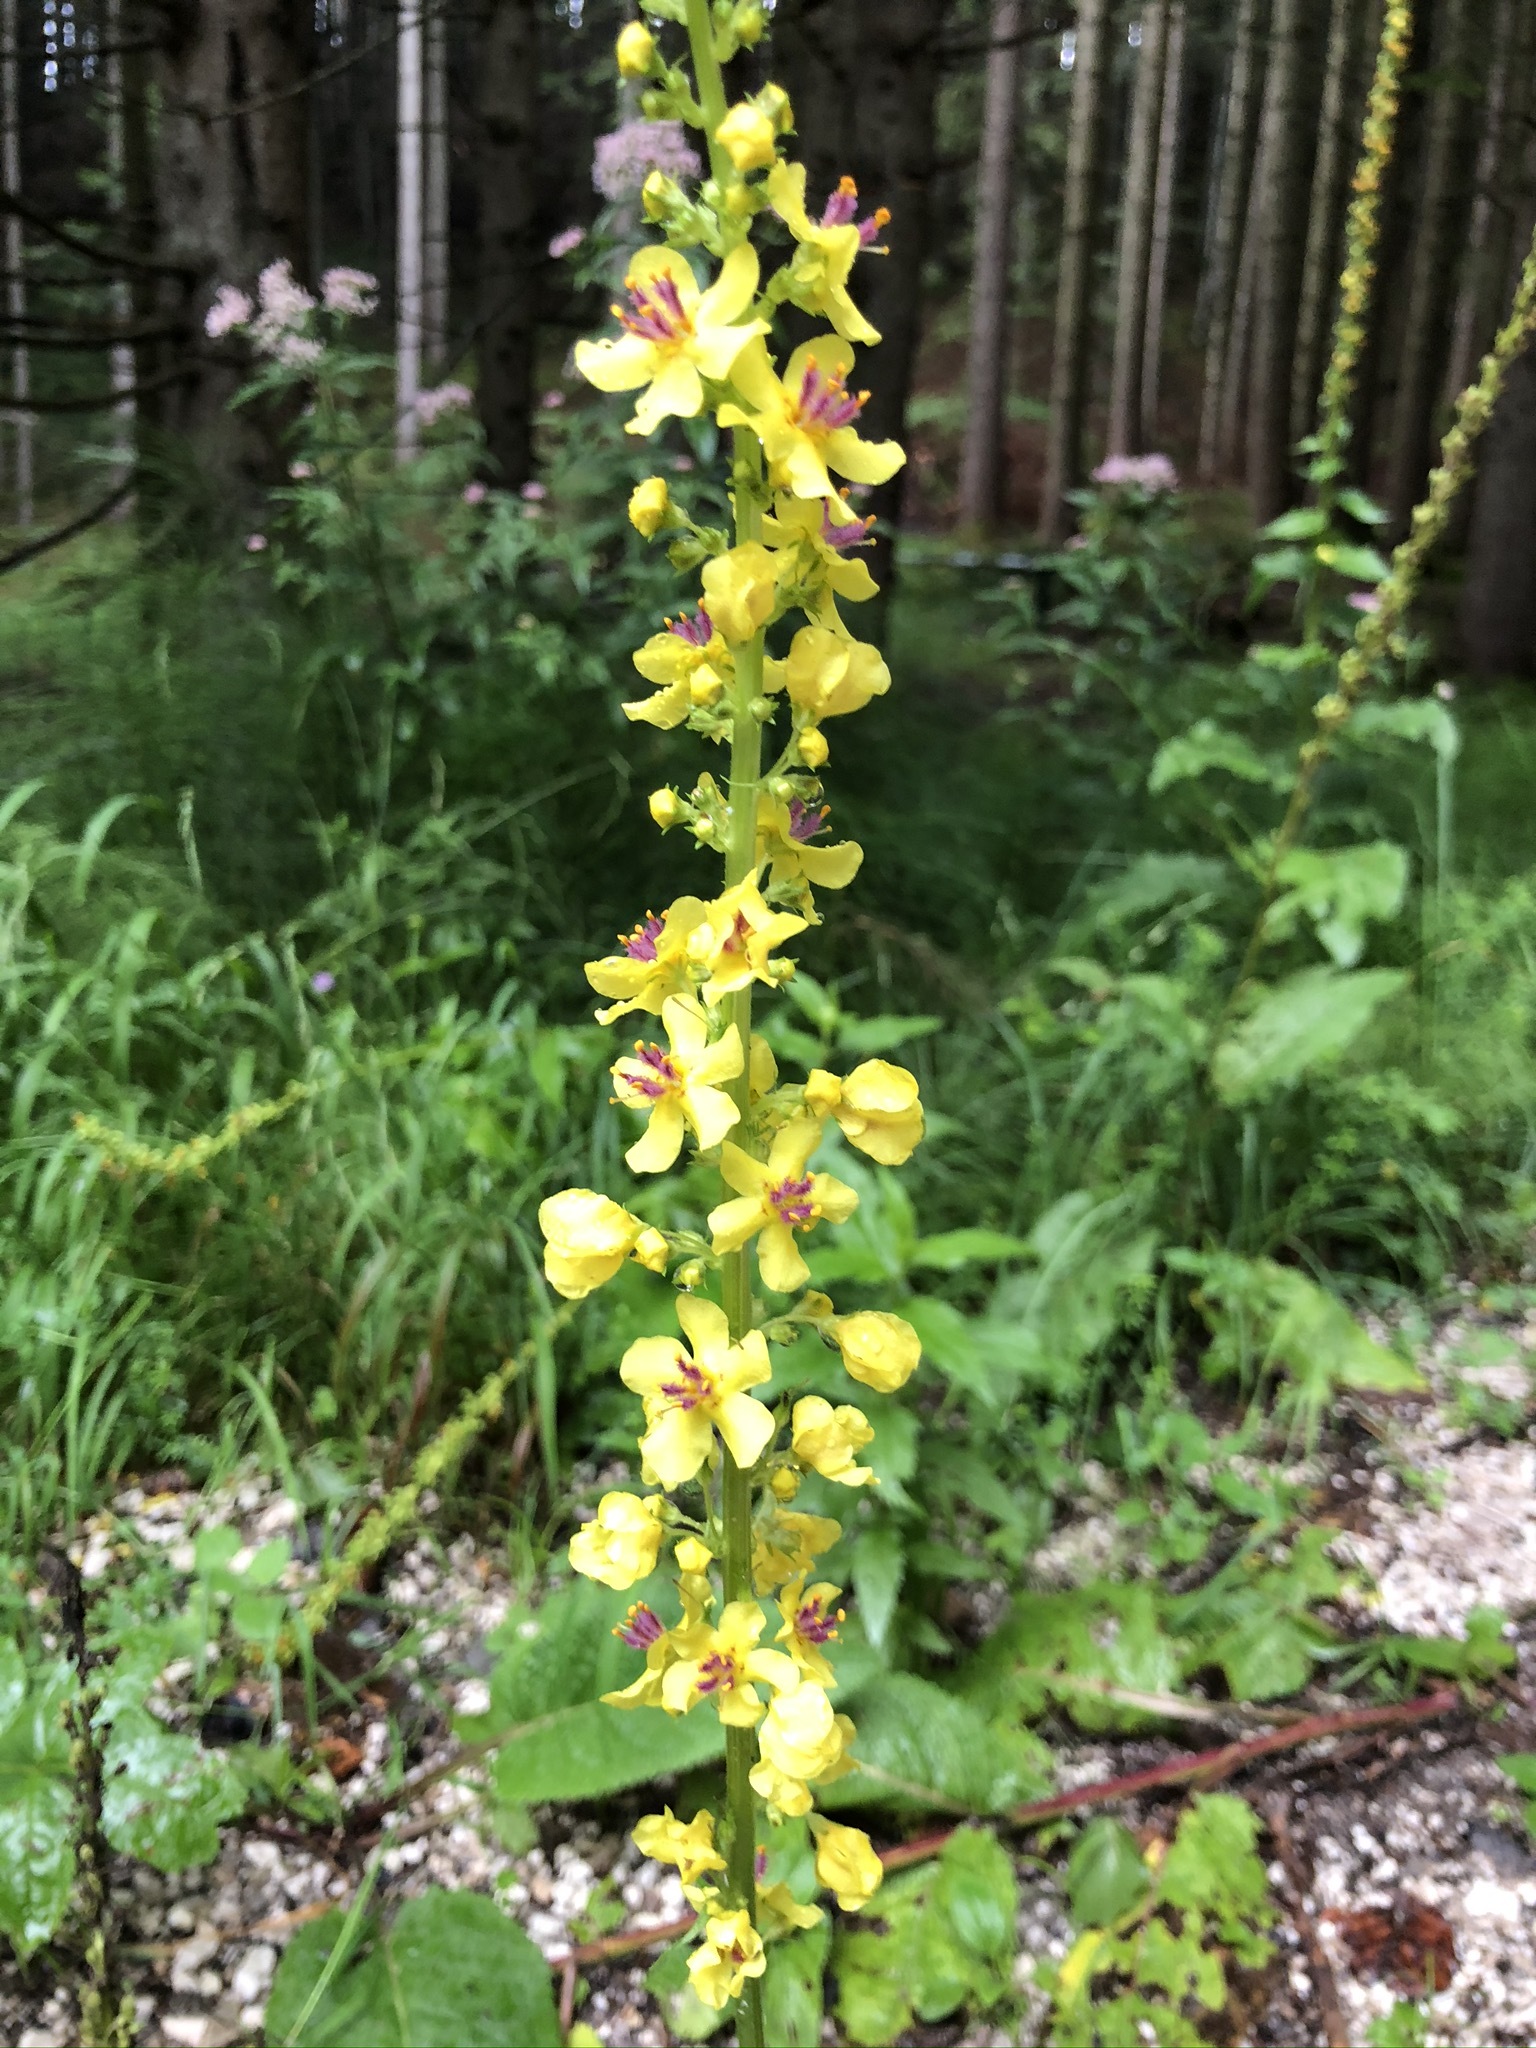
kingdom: Plantae
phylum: Tracheophyta
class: Magnoliopsida
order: Lamiales
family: Scrophulariaceae
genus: Verbascum
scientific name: Verbascum nigrum
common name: Dark mullein
